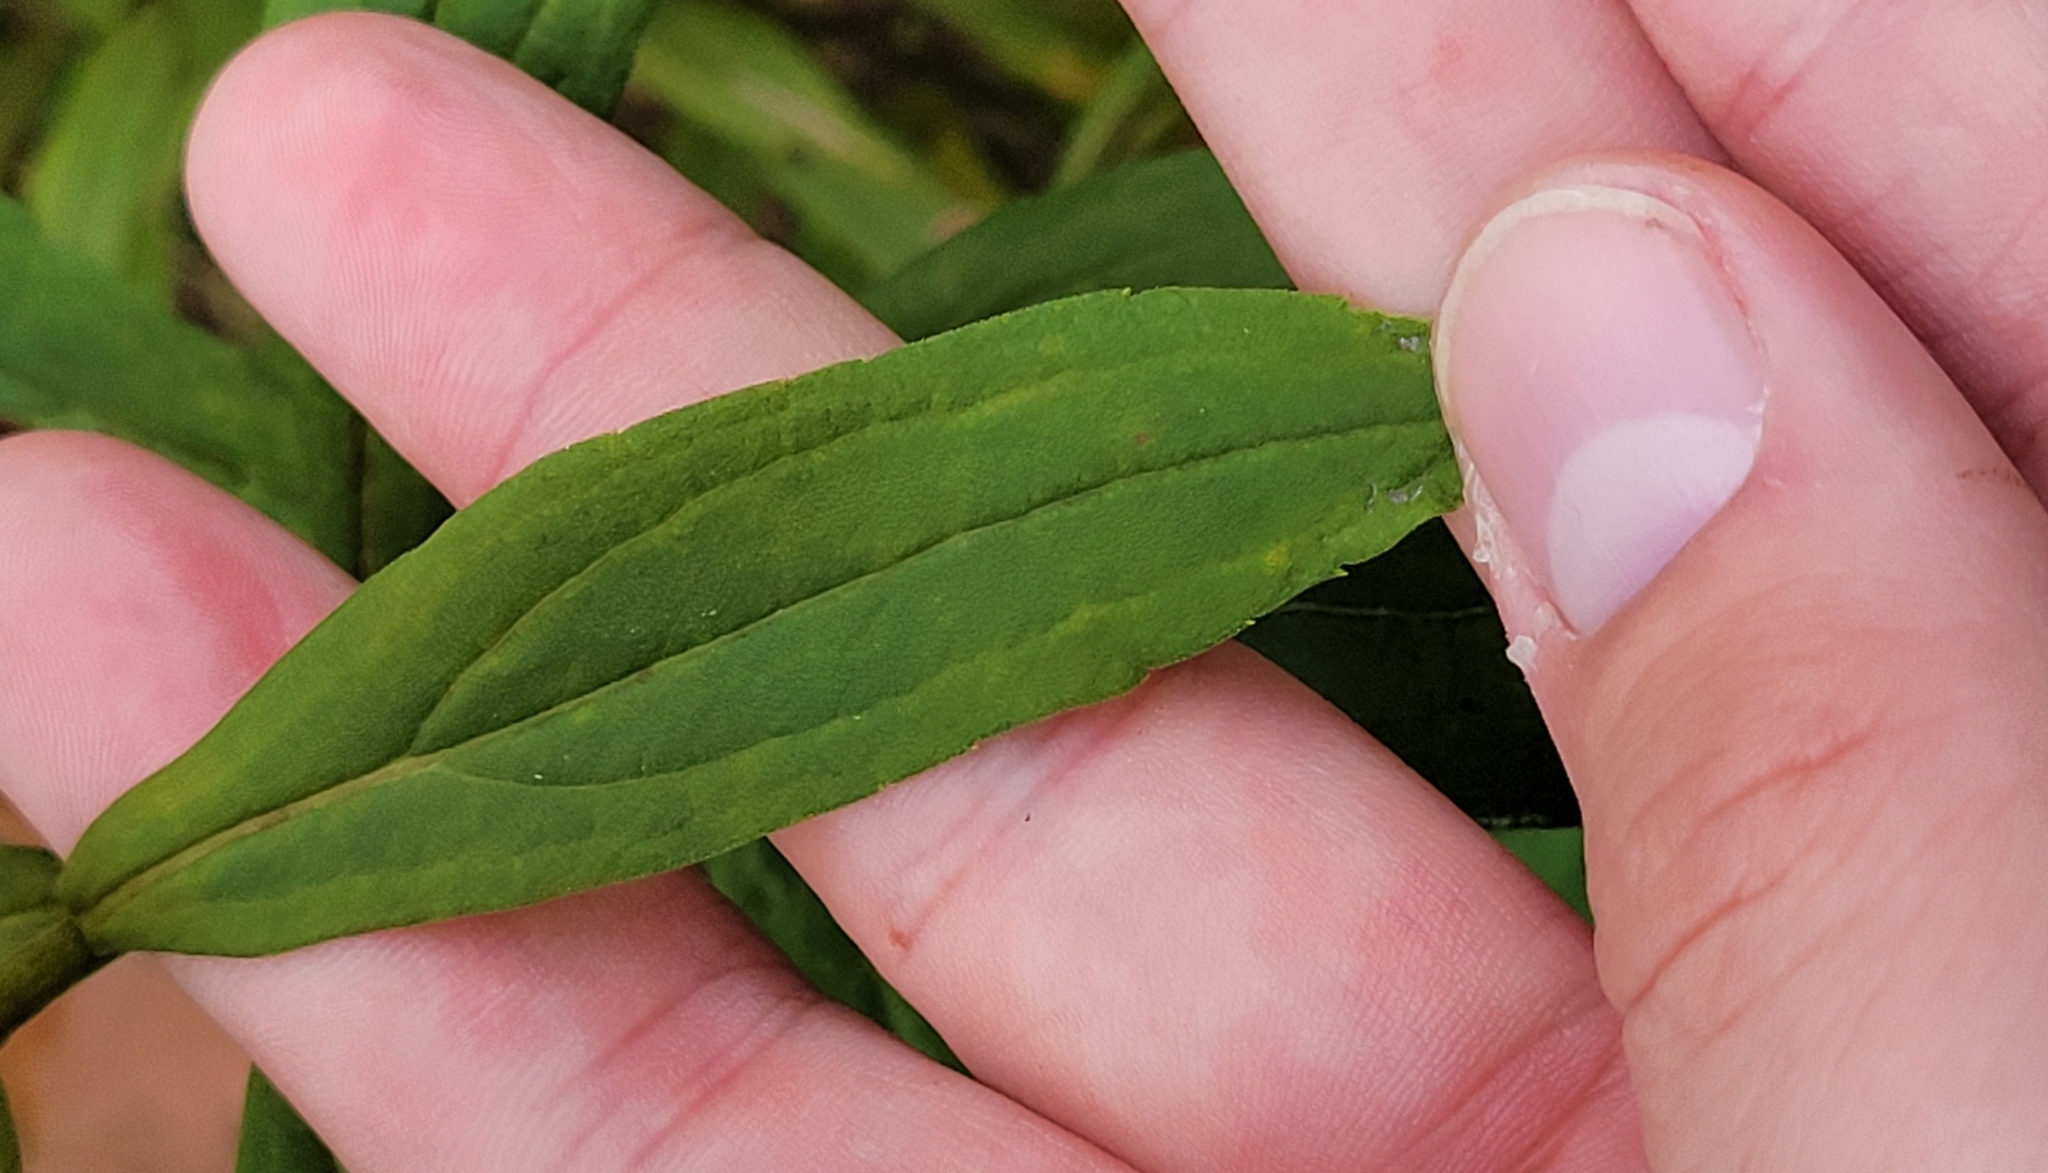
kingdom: Plantae
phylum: Tracheophyta
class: Magnoliopsida
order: Asterales
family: Asteraceae
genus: Solidago
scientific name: Solidago altissima
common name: Late goldenrod
